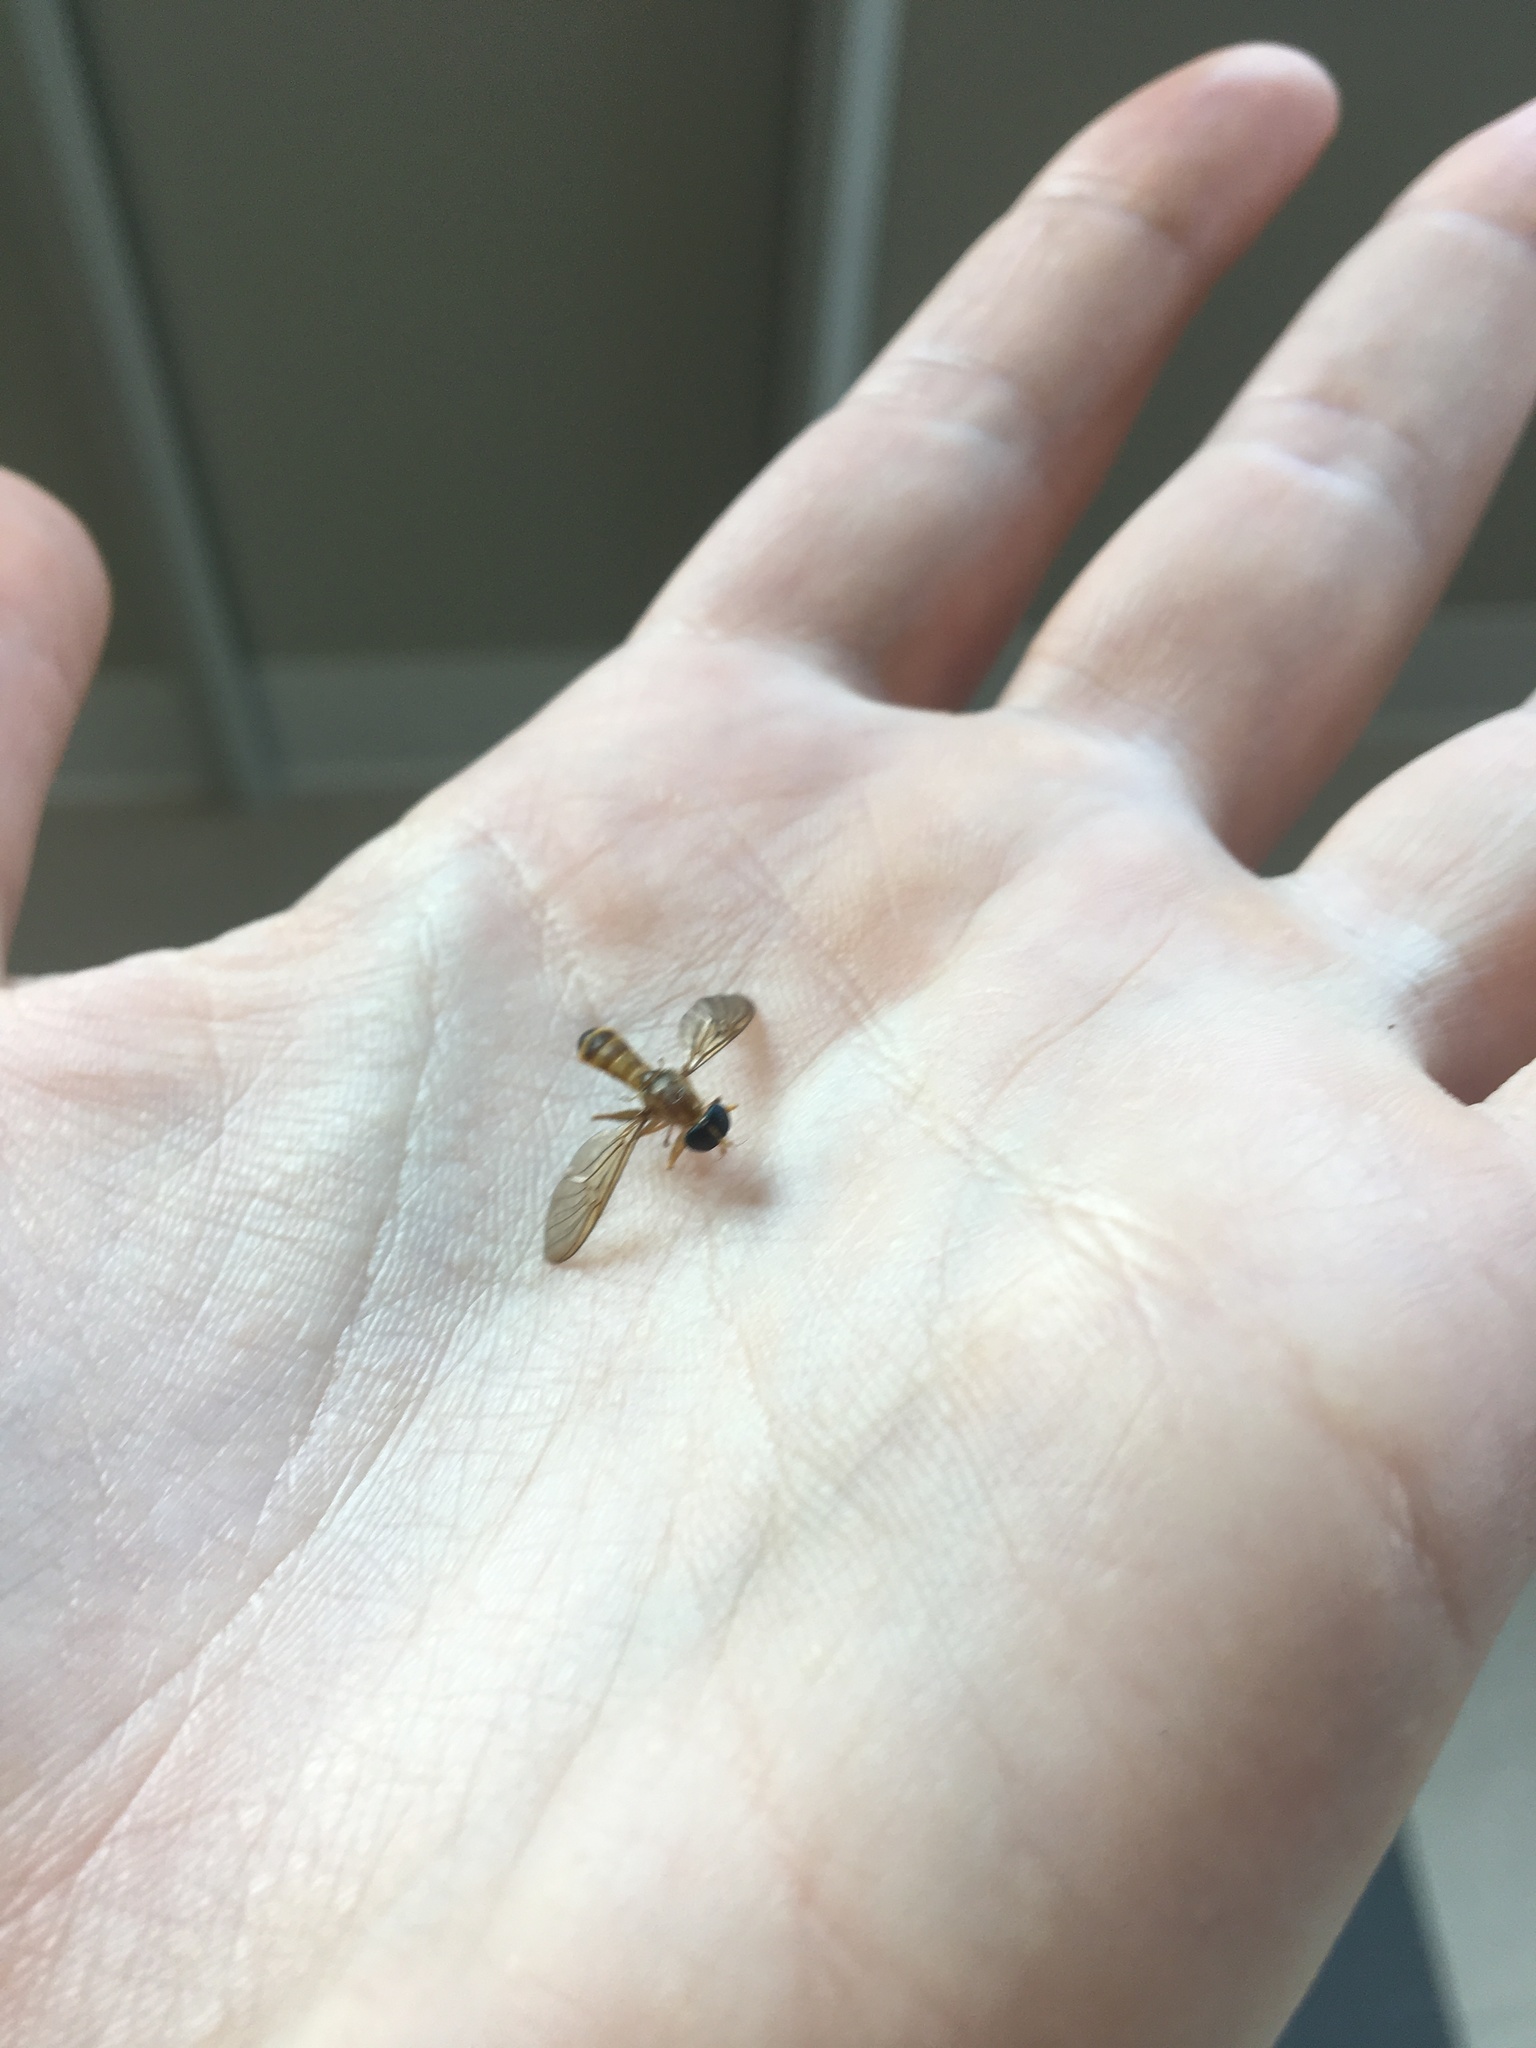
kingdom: Animalia
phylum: Arthropoda
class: Insecta
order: Diptera
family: Stratiomyidae
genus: Ptecticus
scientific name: Ptecticus trivittatus
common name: Compost fly
